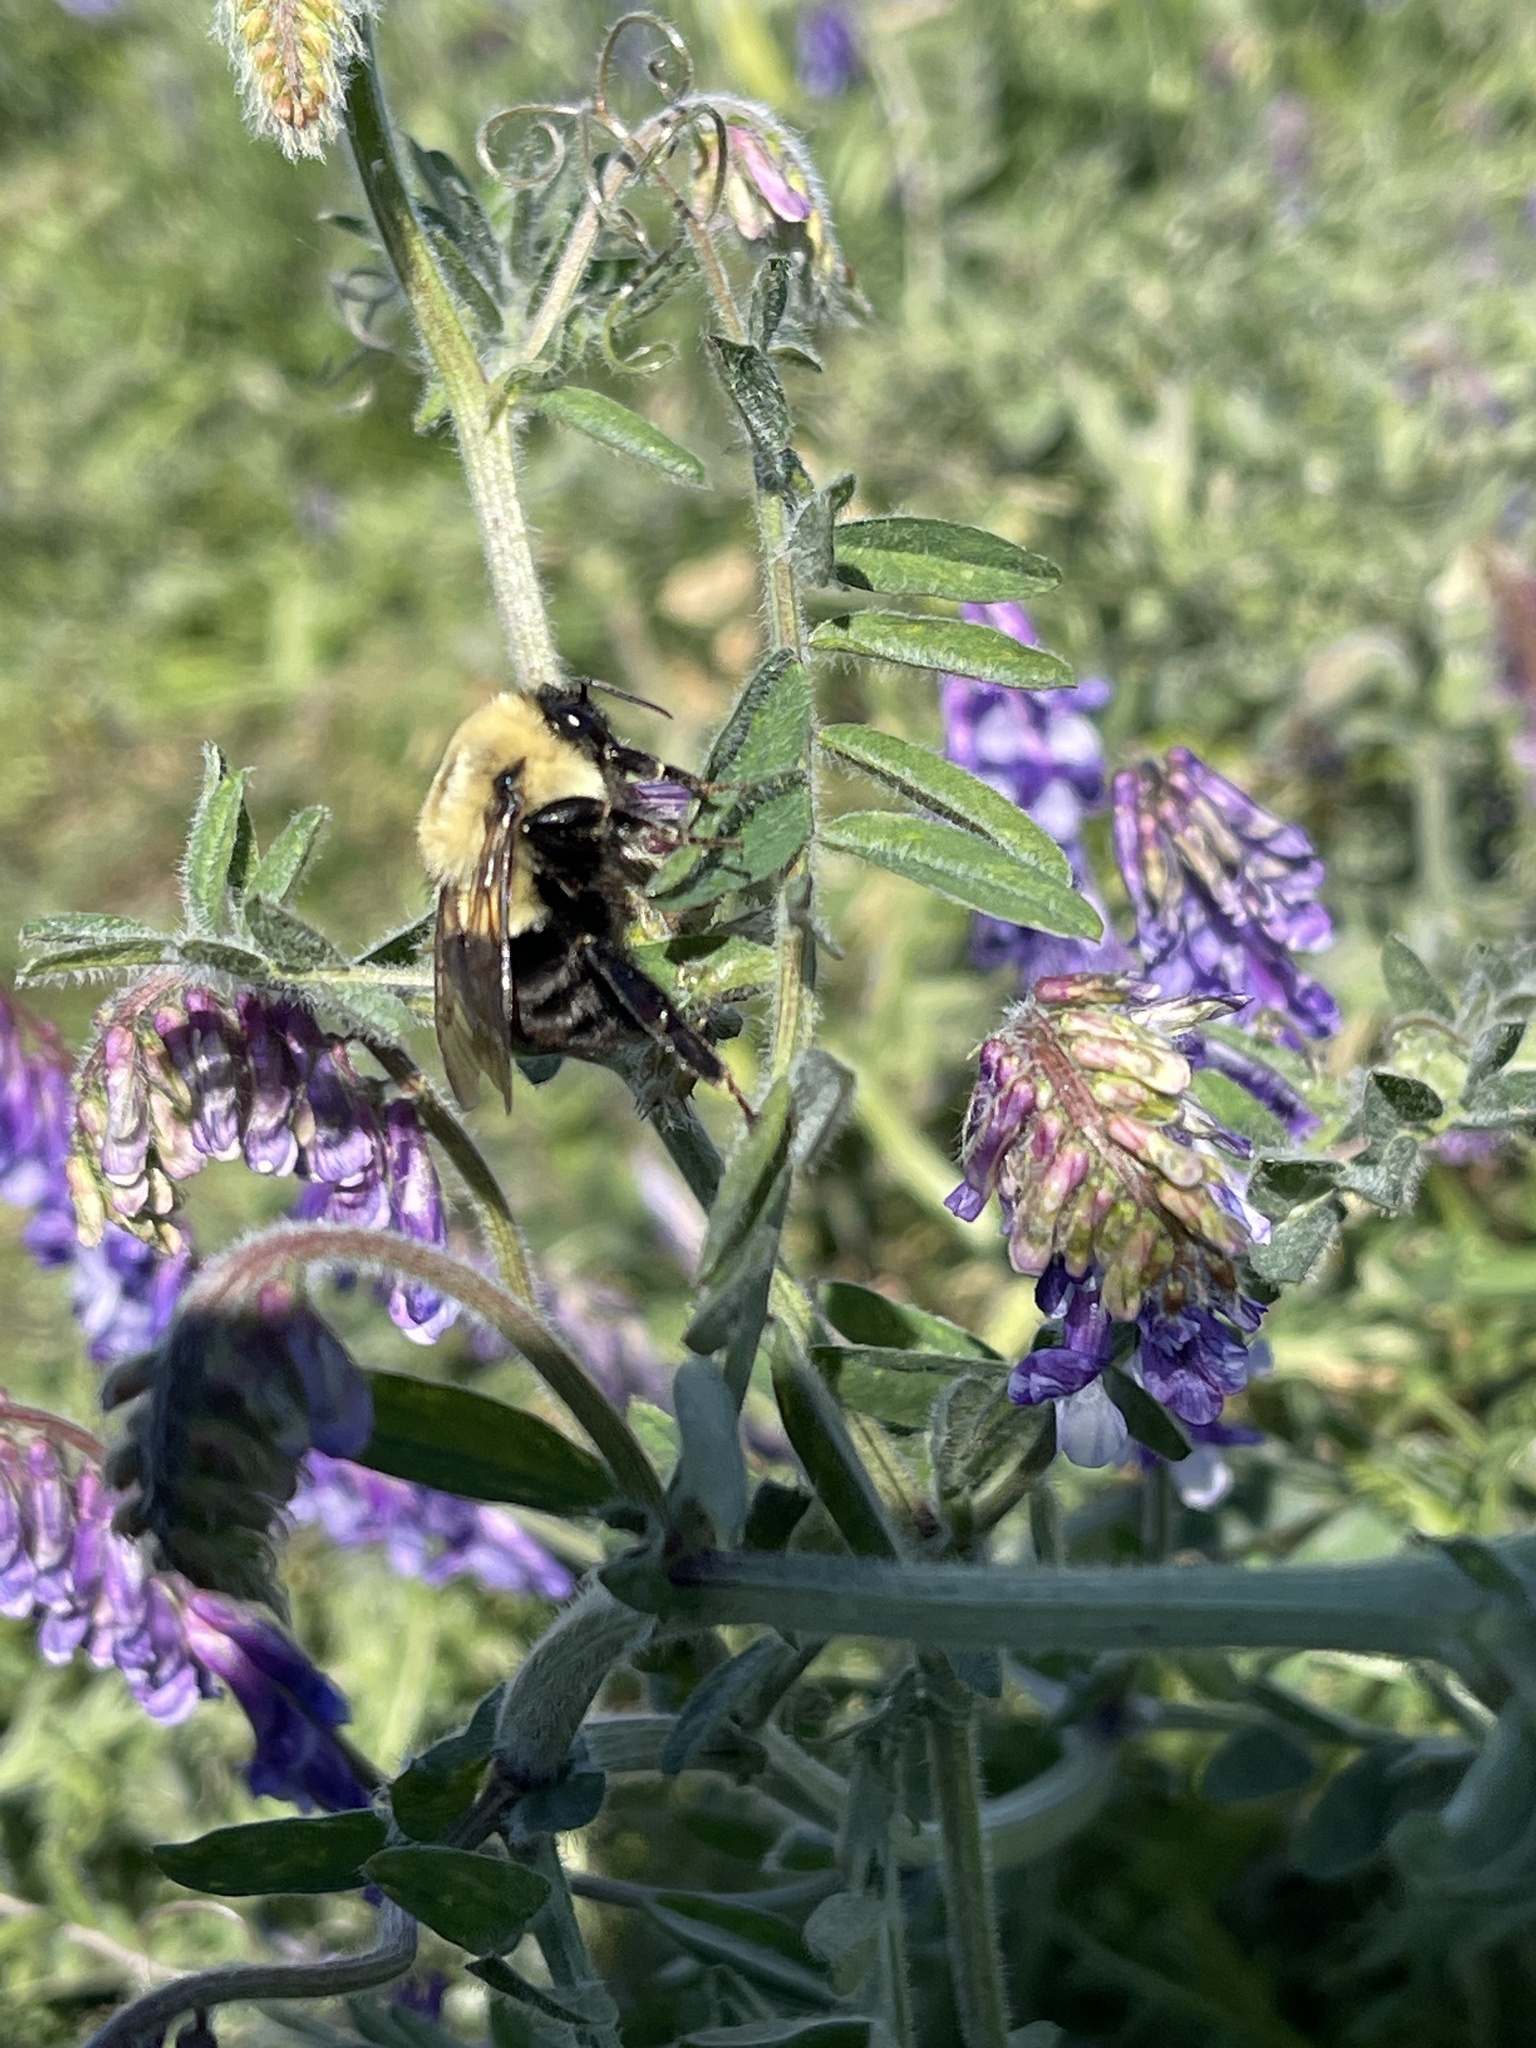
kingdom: Animalia
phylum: Arthropoda
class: Insecta
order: Hymenoptera
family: Apidae
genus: Bombus
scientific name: Bombus impatiens
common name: Common eastern bumble bee
